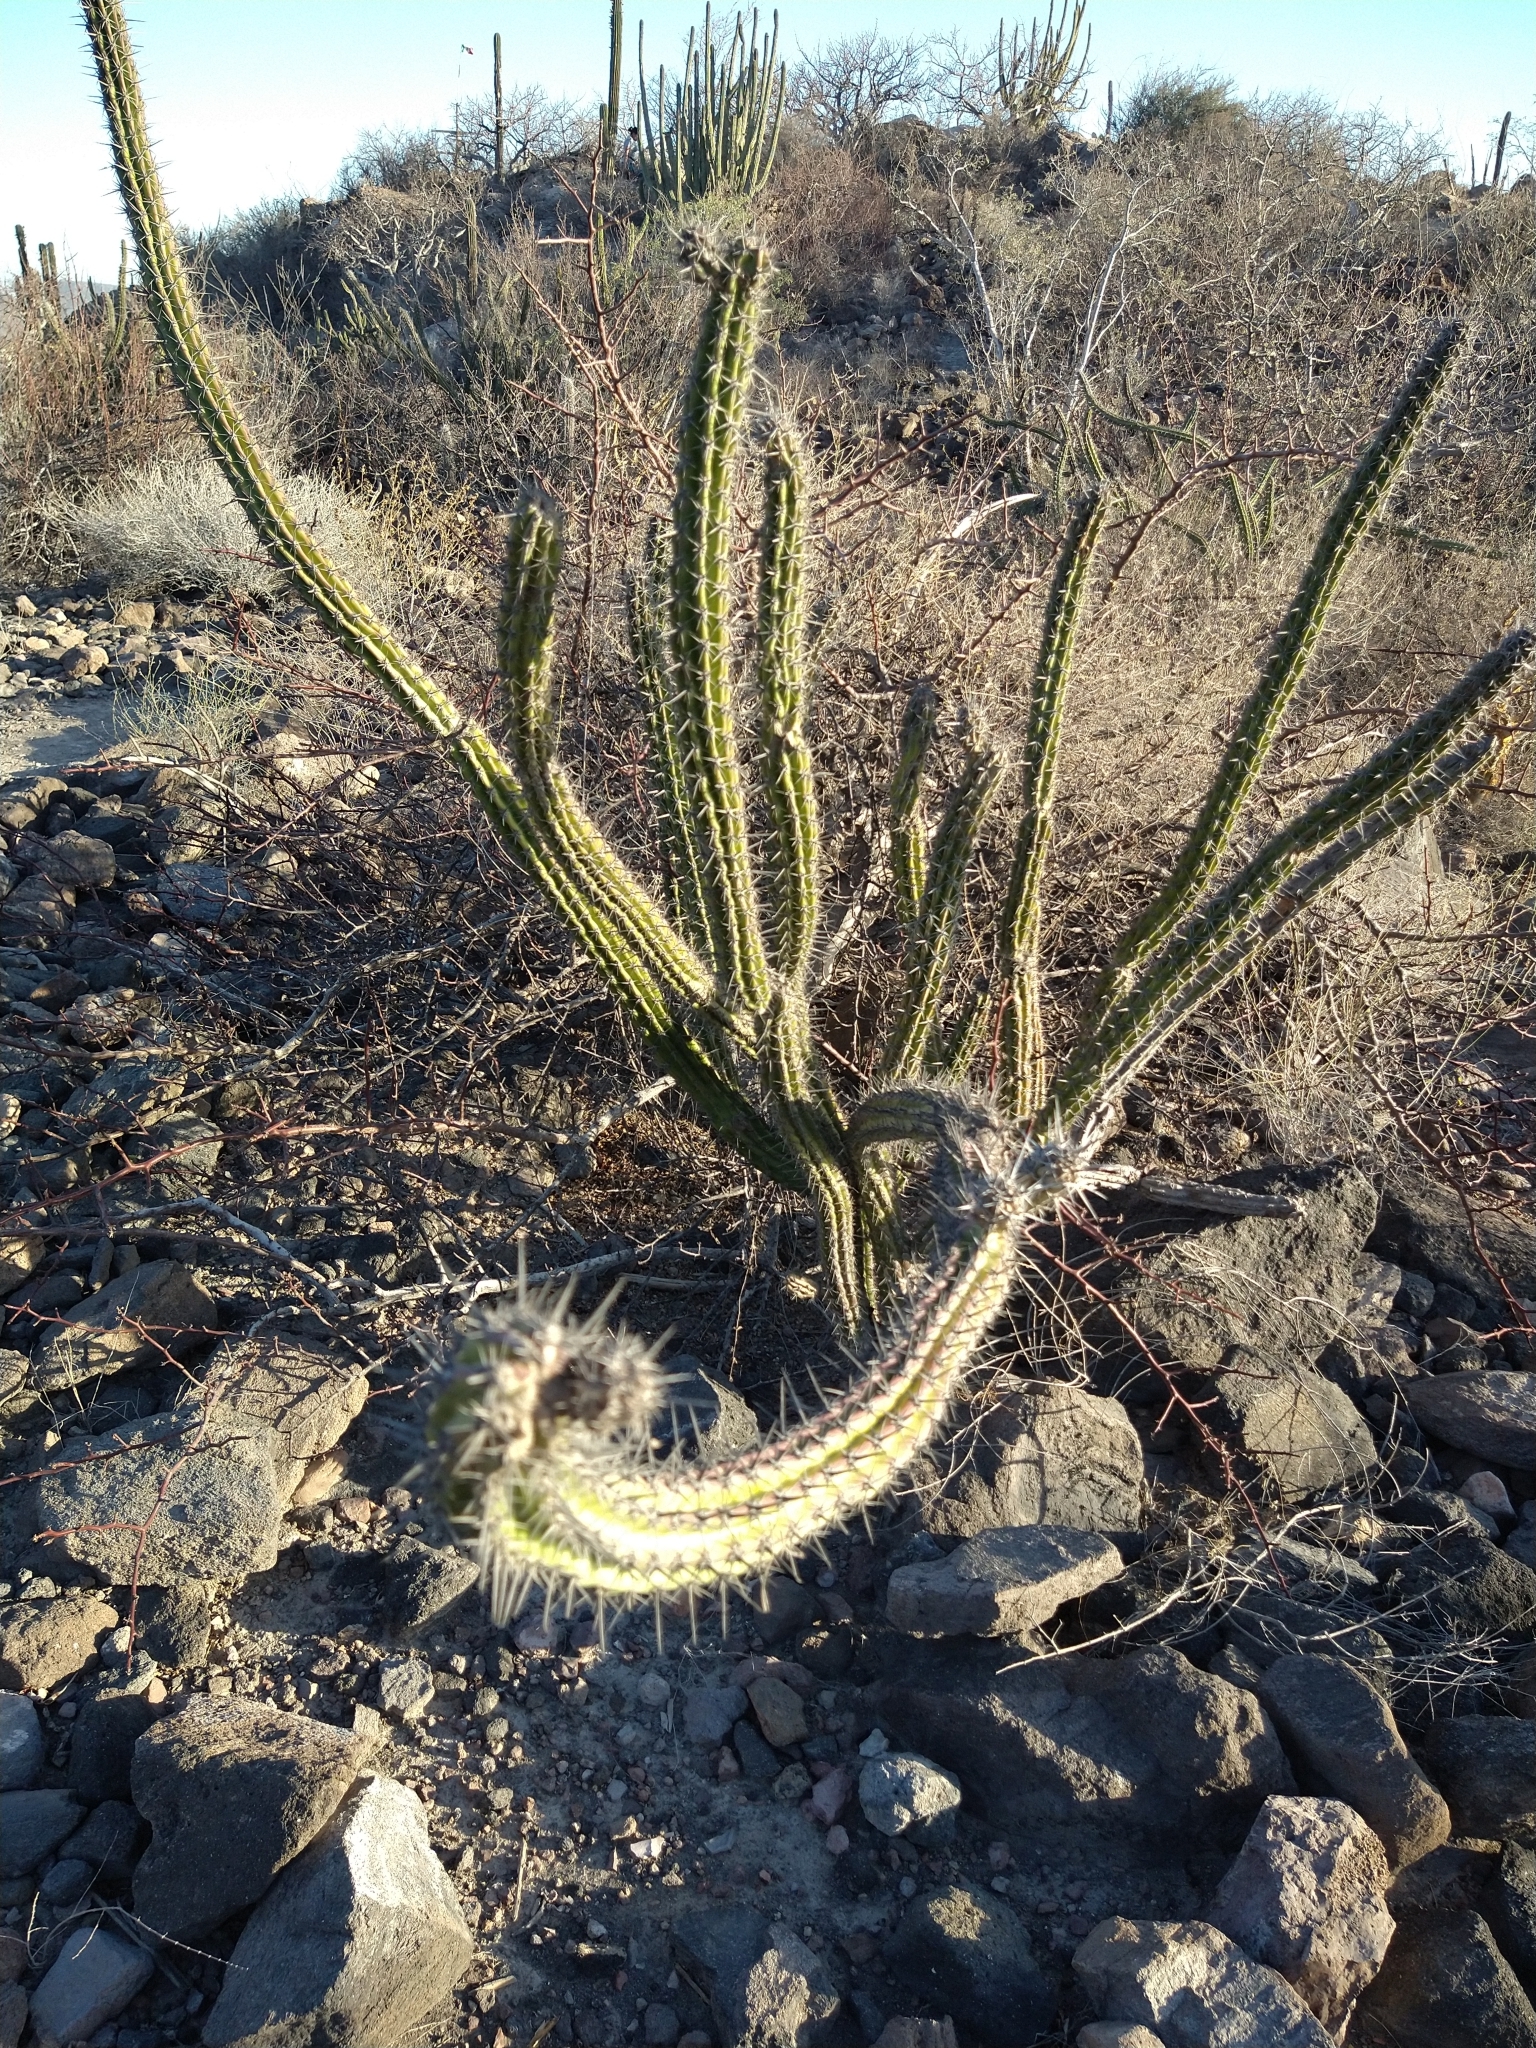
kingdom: Plantae
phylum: Tracheophyta
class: Magnoliopsida
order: Caryophyllales
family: Cactaceae
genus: Stenocereus
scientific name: Stenocereus gummosus
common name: Dagger cactus
